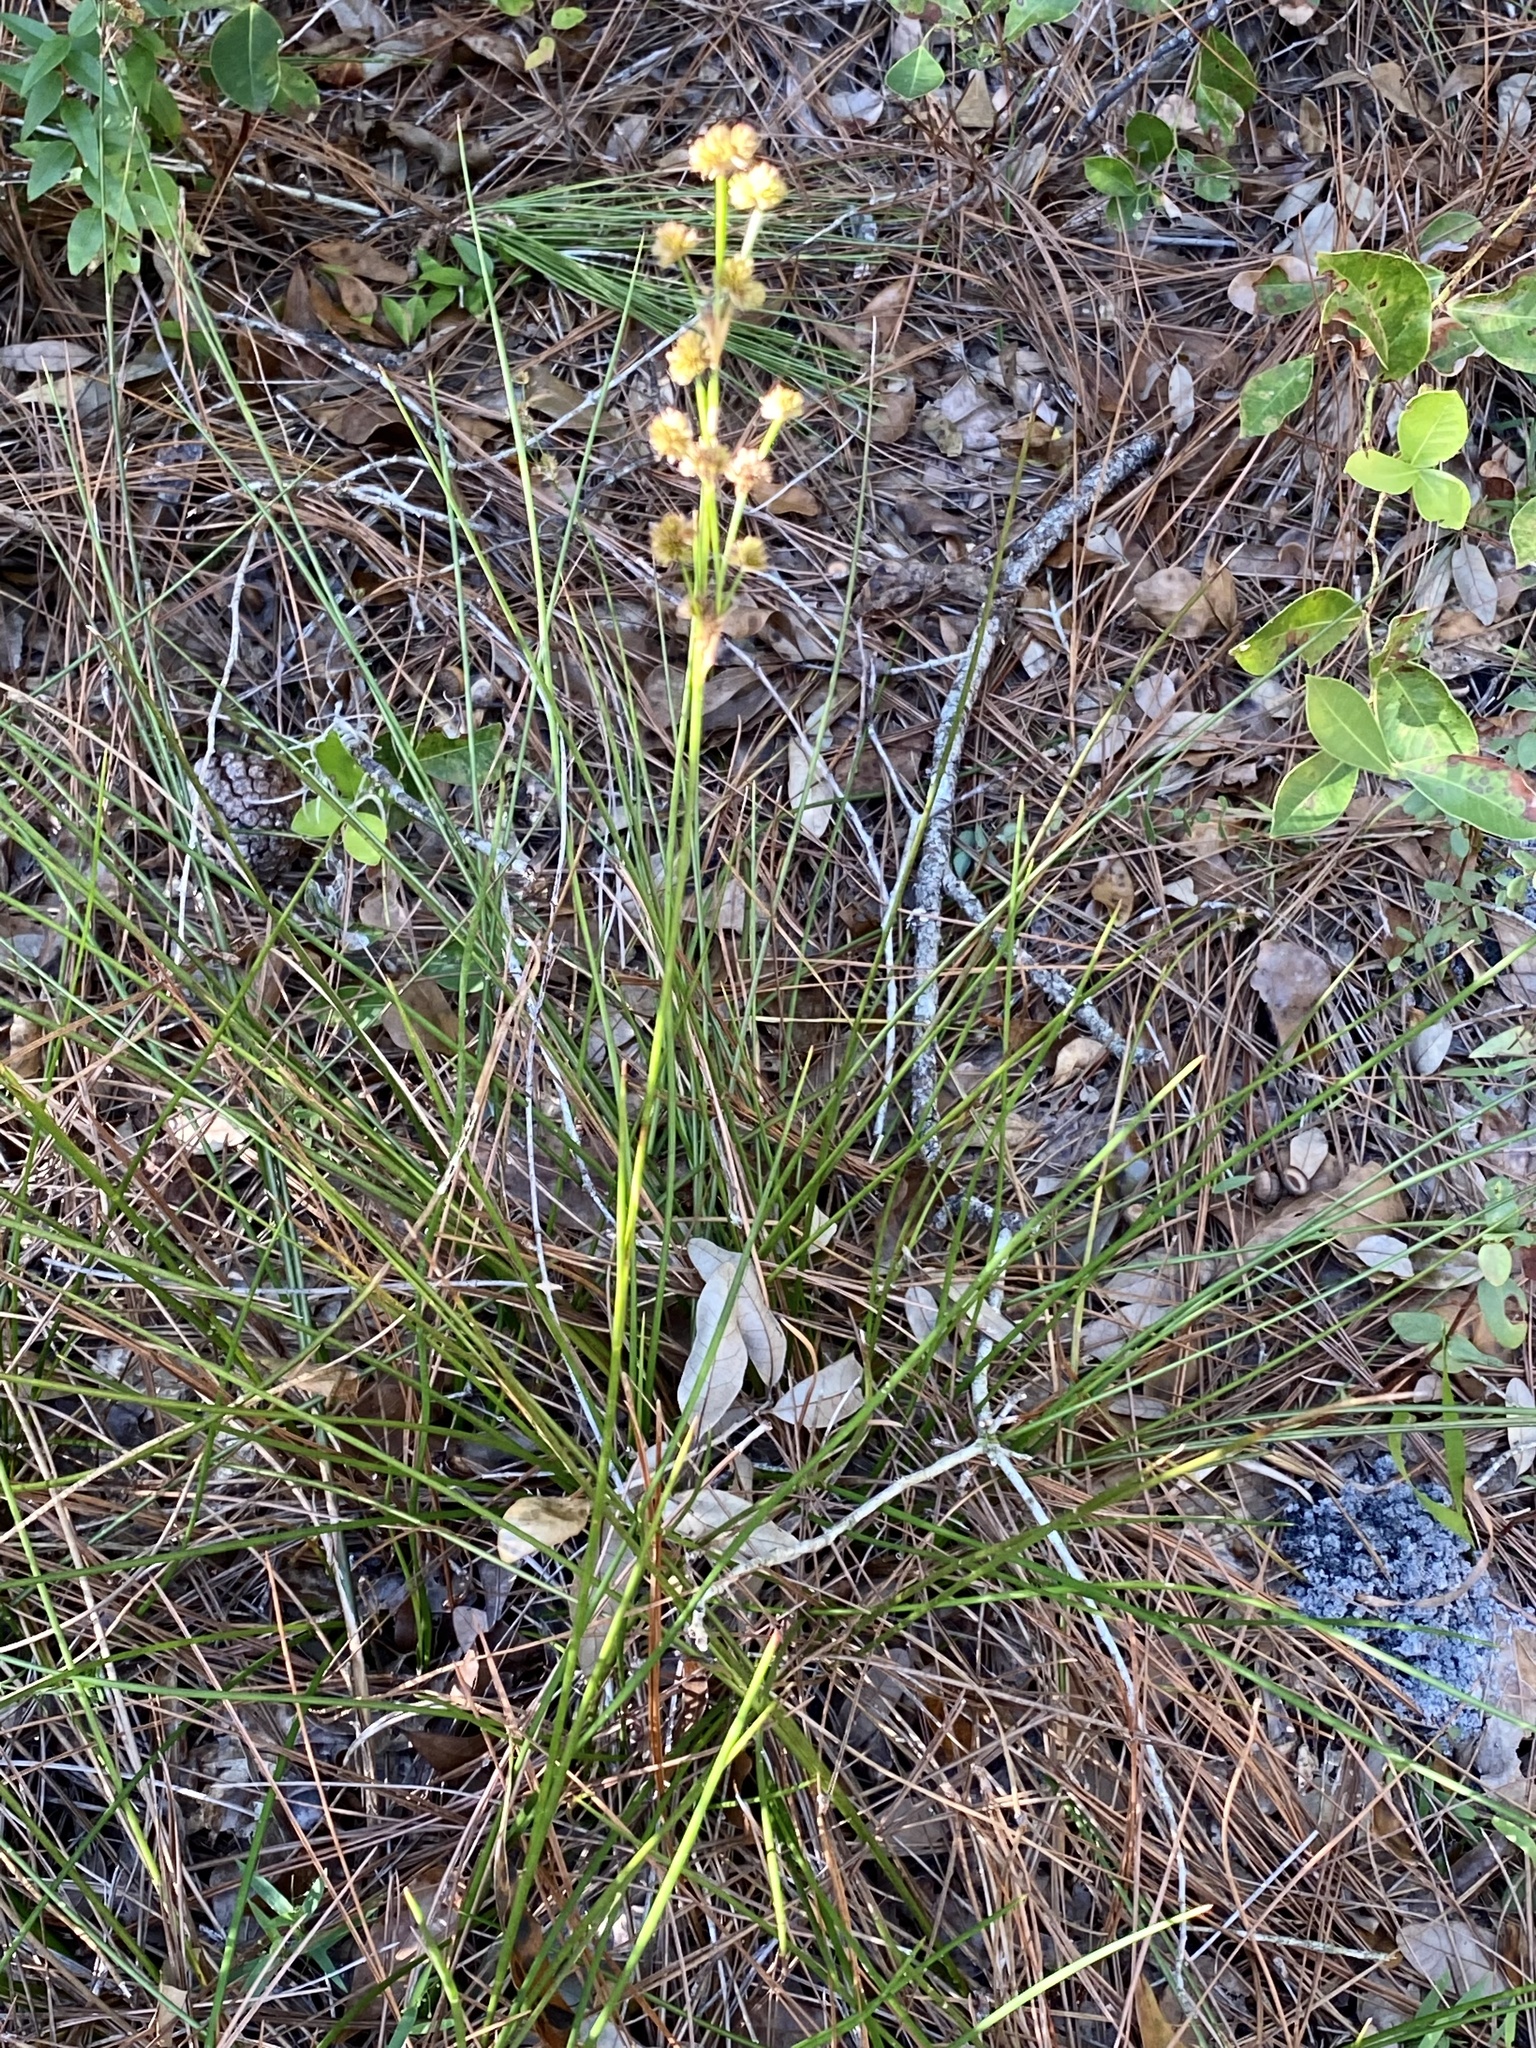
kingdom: Plantae
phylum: Tracheophyta
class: Liliopsida
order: Poales
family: Juncaceae
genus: Juncus
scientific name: Juncus scirpoides
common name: Needlepod rush
